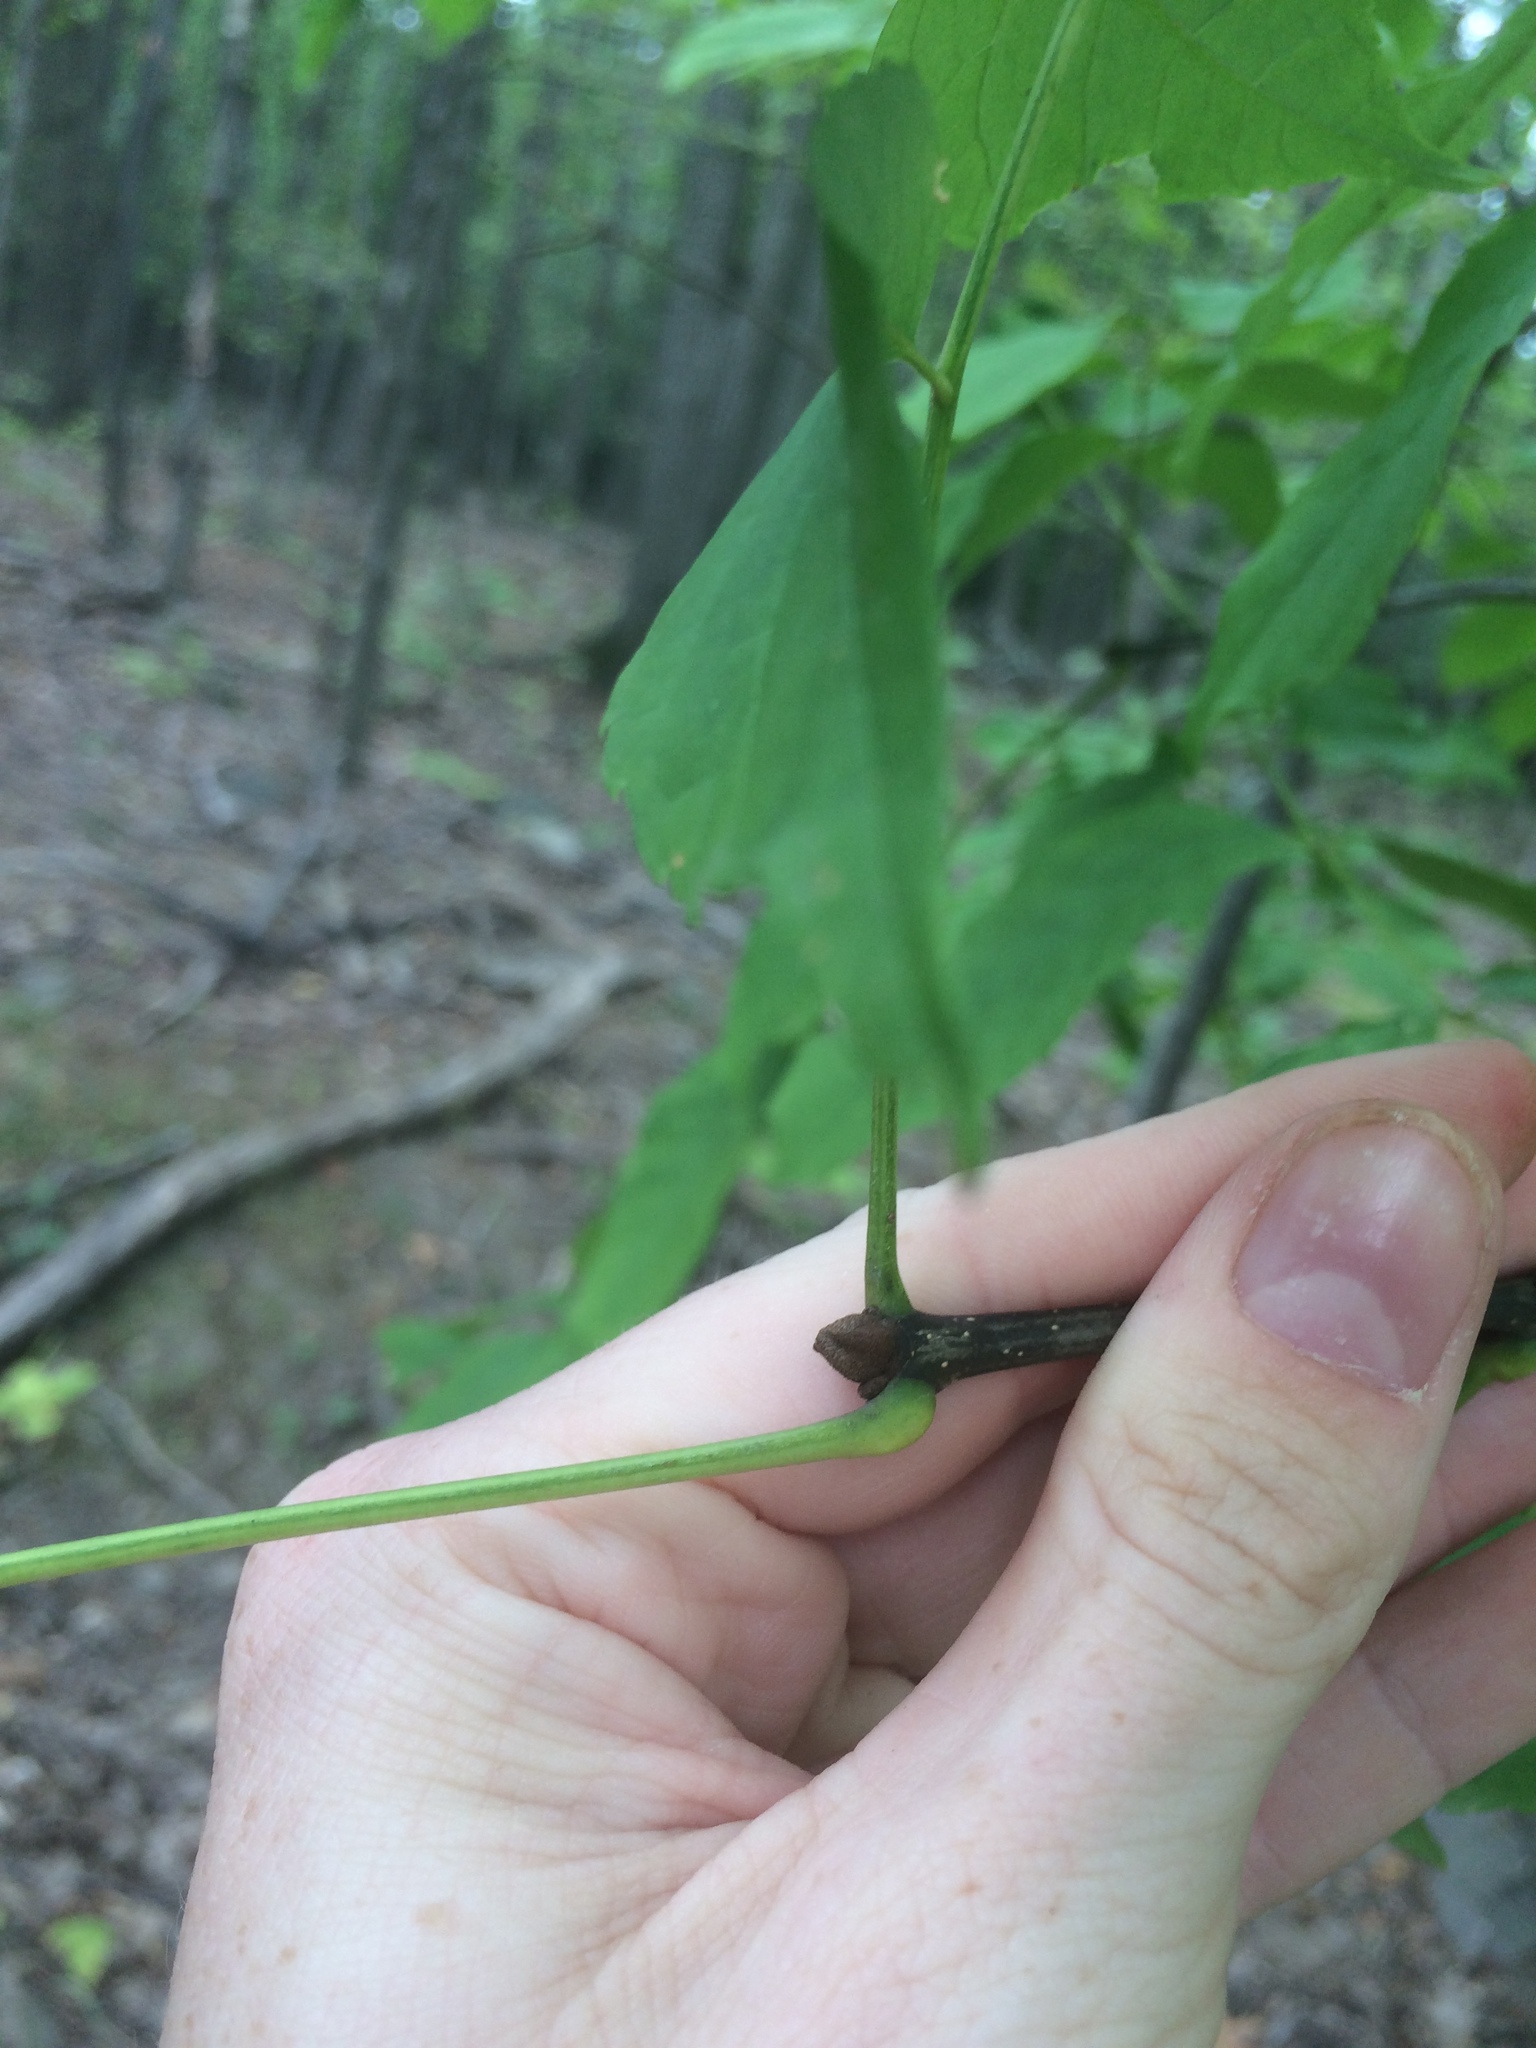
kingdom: Plantae
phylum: Tracheophyta
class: Magnoliopsida
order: Lamiales
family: Oleaceae
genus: Fraxinus
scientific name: Fraxinus americana
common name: White ash
